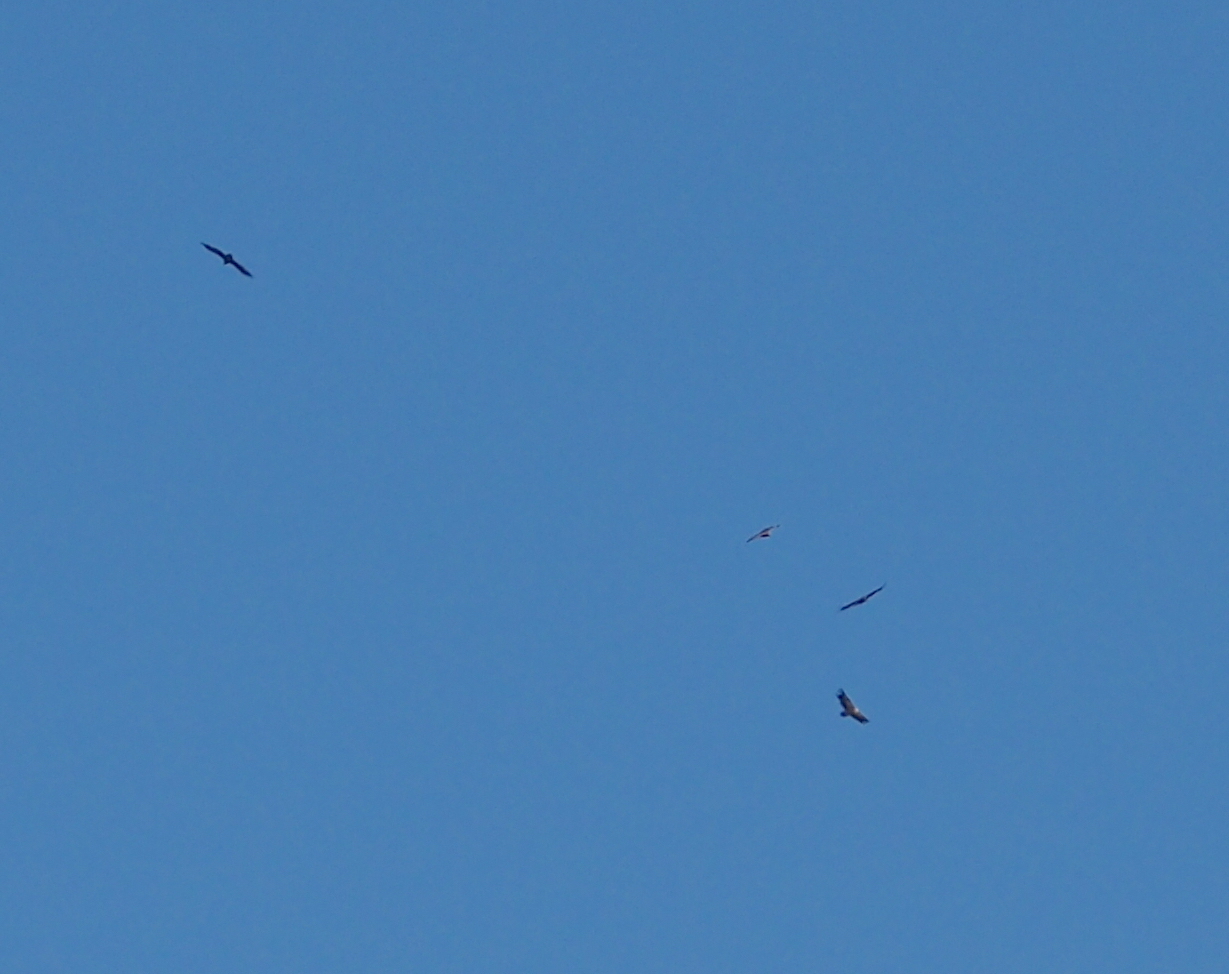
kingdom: Animalia
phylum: Chordata
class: Aves
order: Accipitriformes
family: Accipitridae
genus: Gyps
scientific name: Gyps fulvus
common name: Griffon vulture
